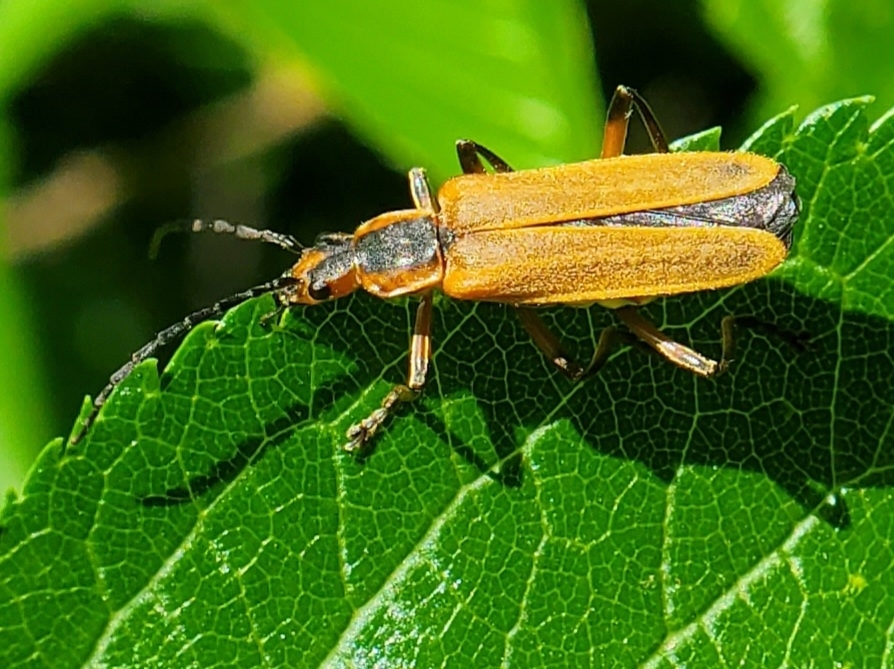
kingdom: Animalia
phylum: Arthropoda
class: Insecta
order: Coleoptera
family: Cantharidae
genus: Chauliognathus
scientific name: Chauliognathus marginatus
